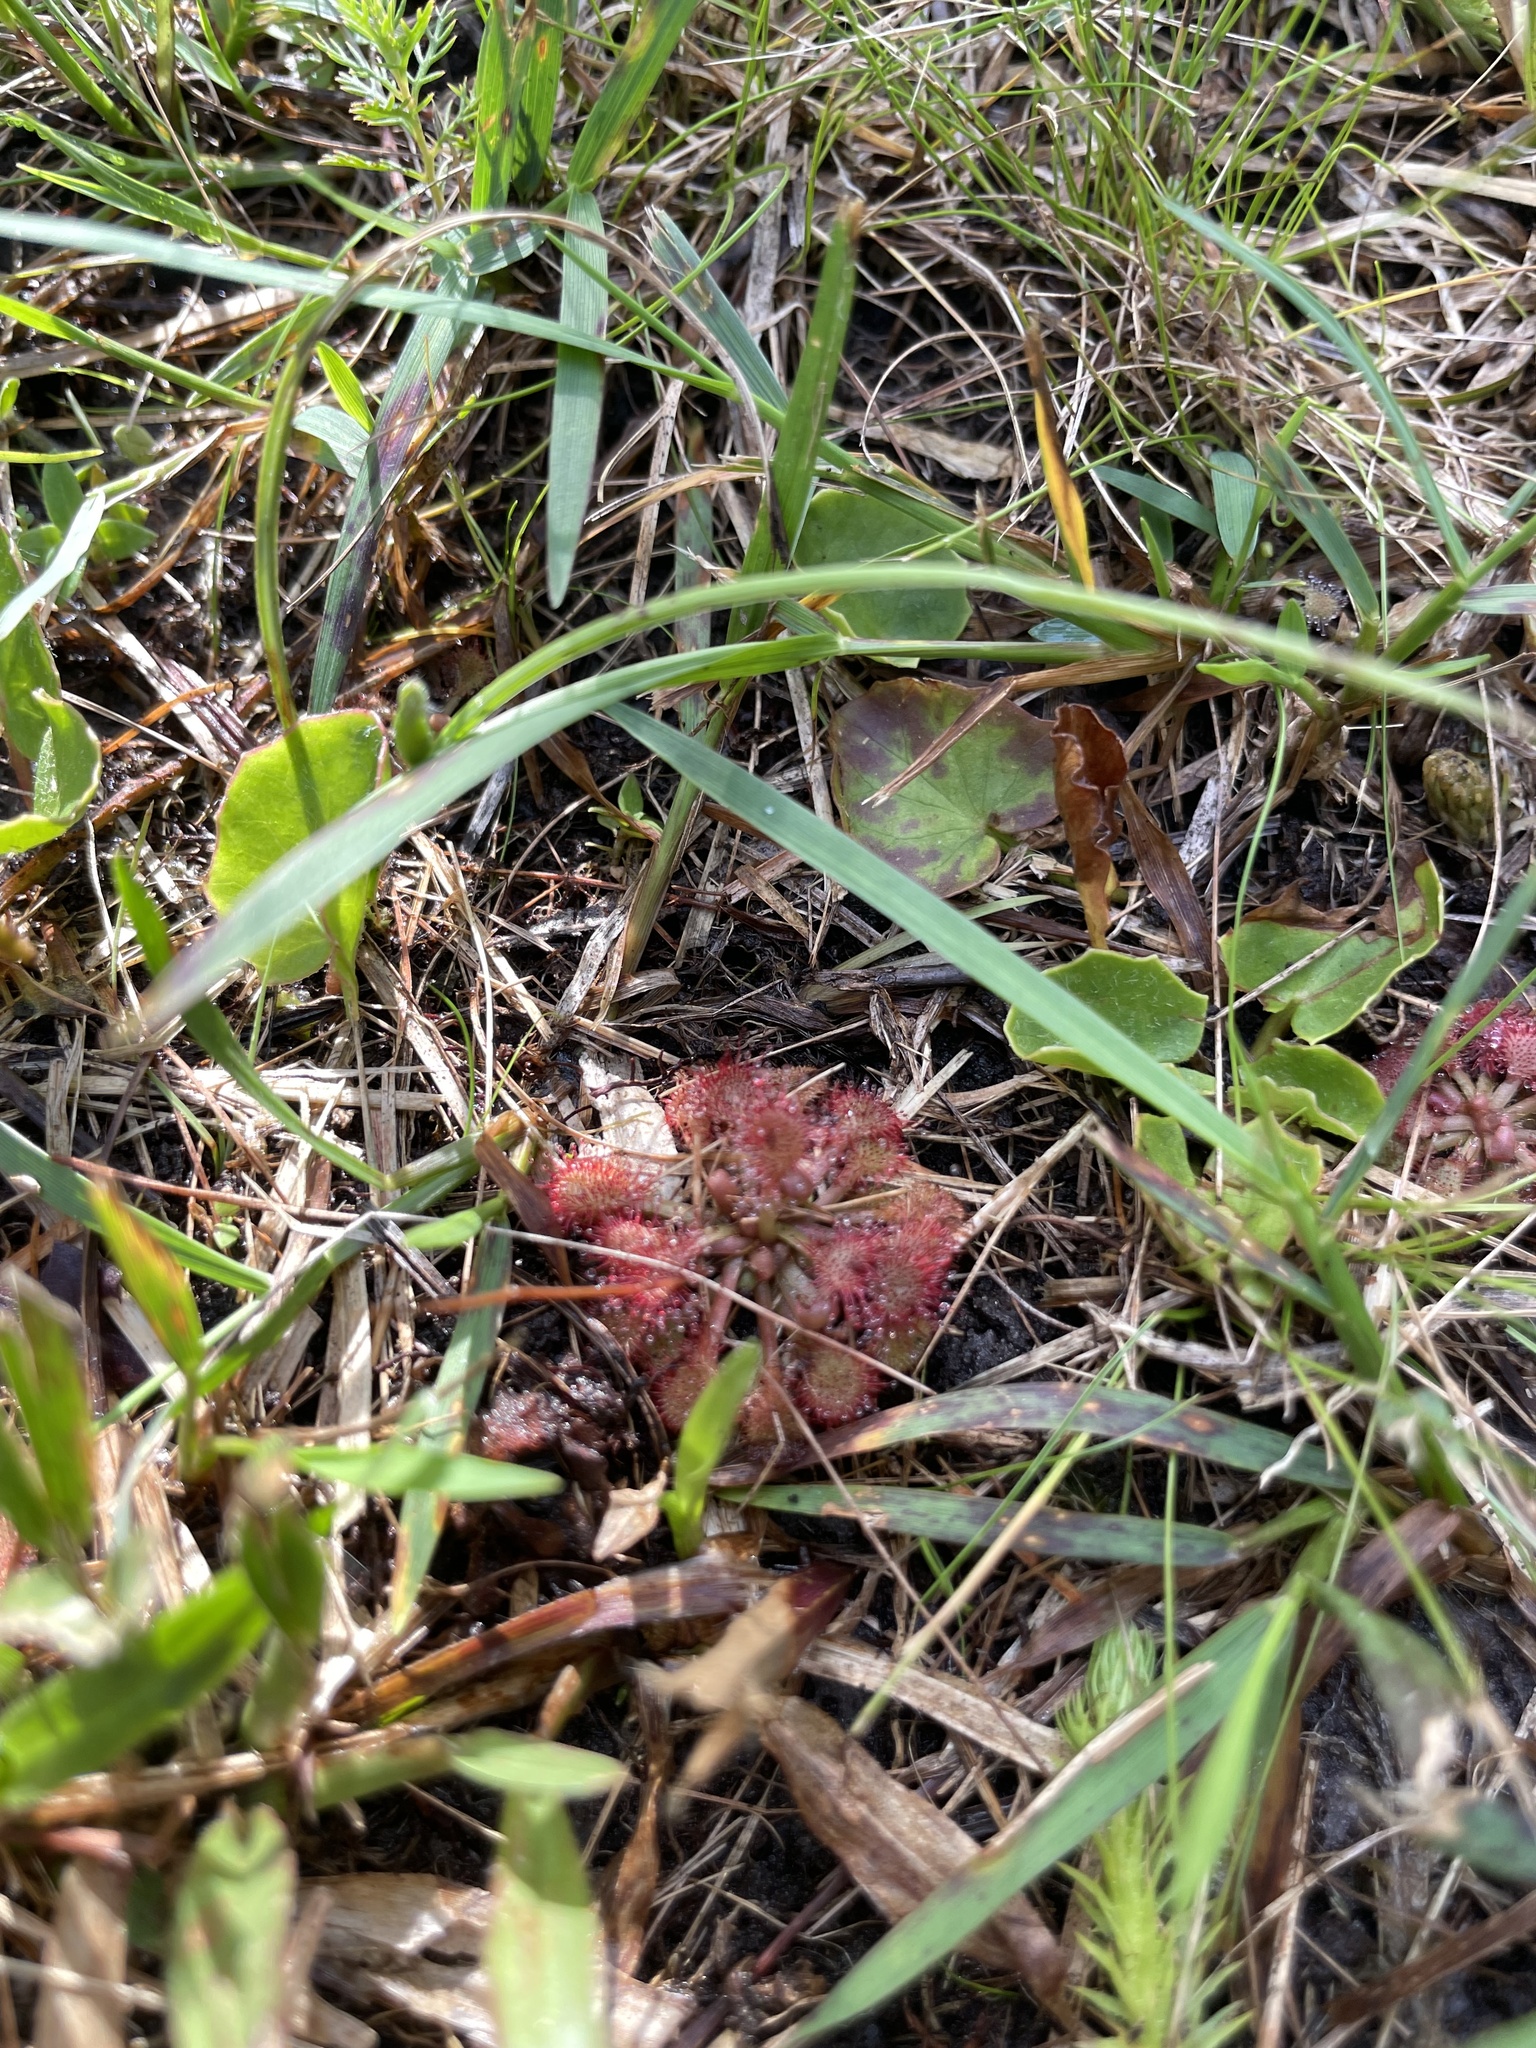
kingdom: Plantae
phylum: Tracheophyta
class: Magnoliopsida
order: Caryophyllales
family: Droseraceae
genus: Drosera
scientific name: Drosera capillaris
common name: Pink sundew
